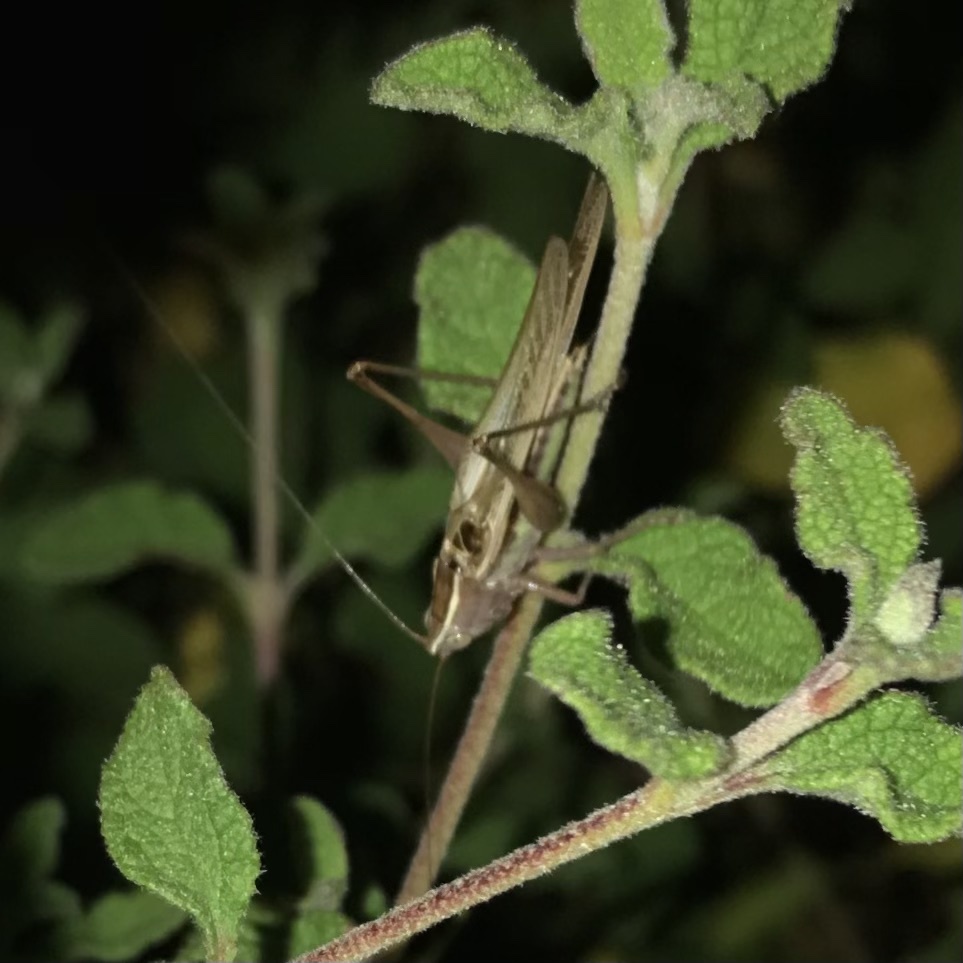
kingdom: Animalia
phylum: Arthropoda
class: Insecta
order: Orthoptera
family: Tettigoniidae
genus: Conocephalus
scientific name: Conocephalus albescens
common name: Whitish meadow katydid
